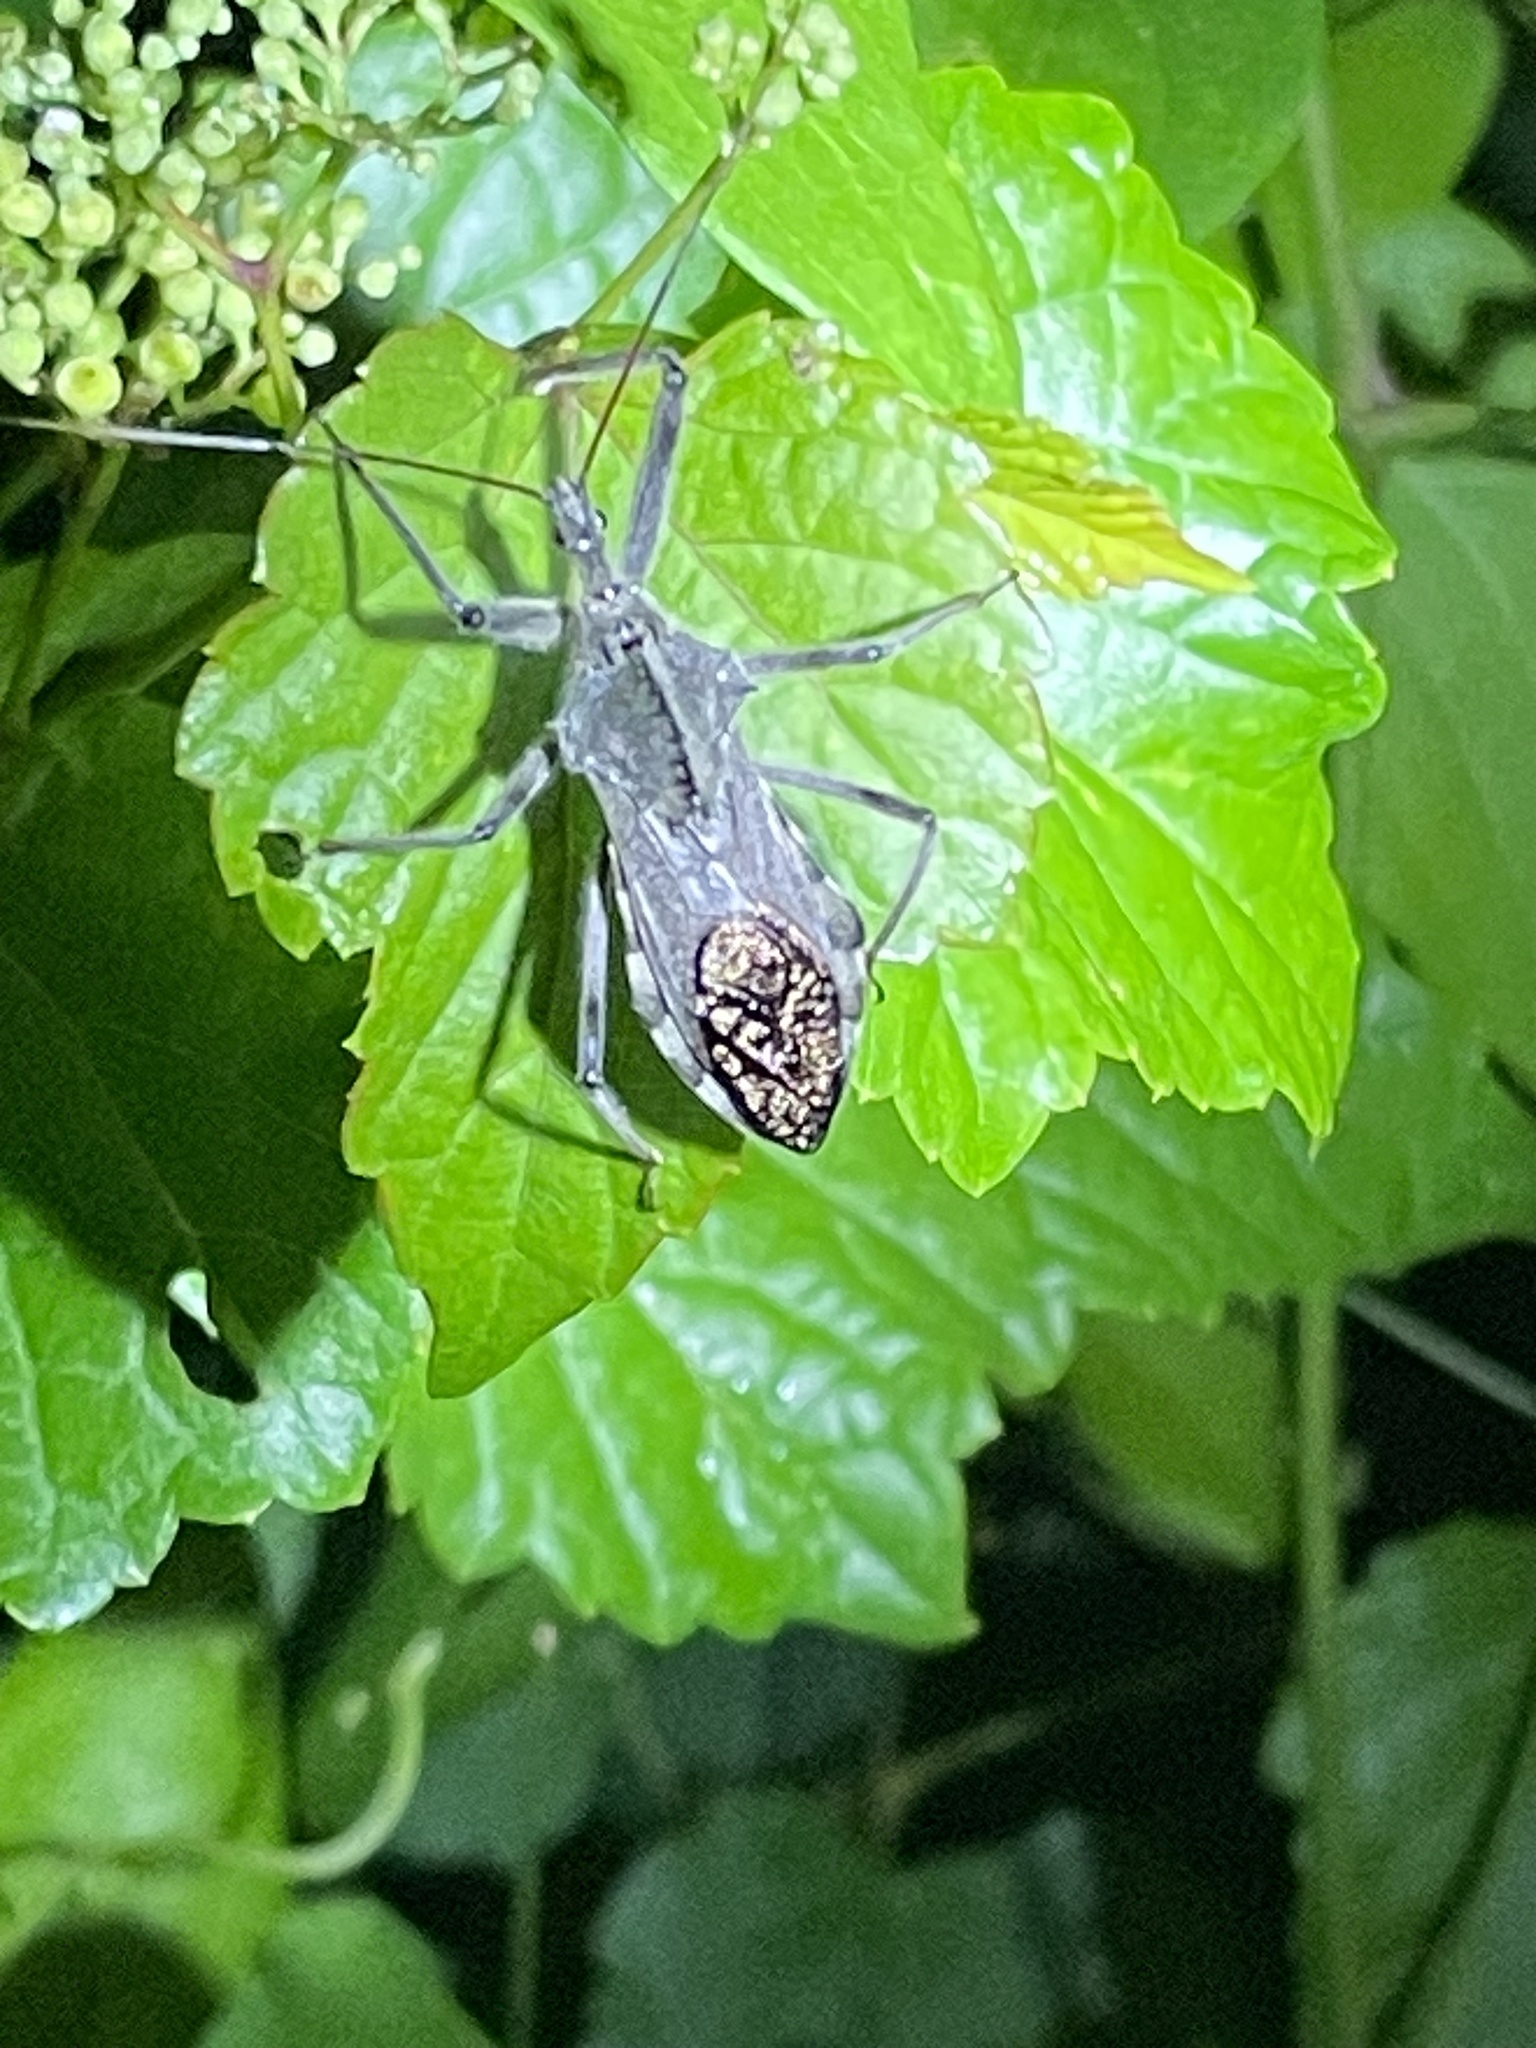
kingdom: Animalia
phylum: Arthropoda
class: Insecta
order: Hemiptera
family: Reduviidae
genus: Arilus
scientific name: Arilus cristatus
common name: North american wheel bug
